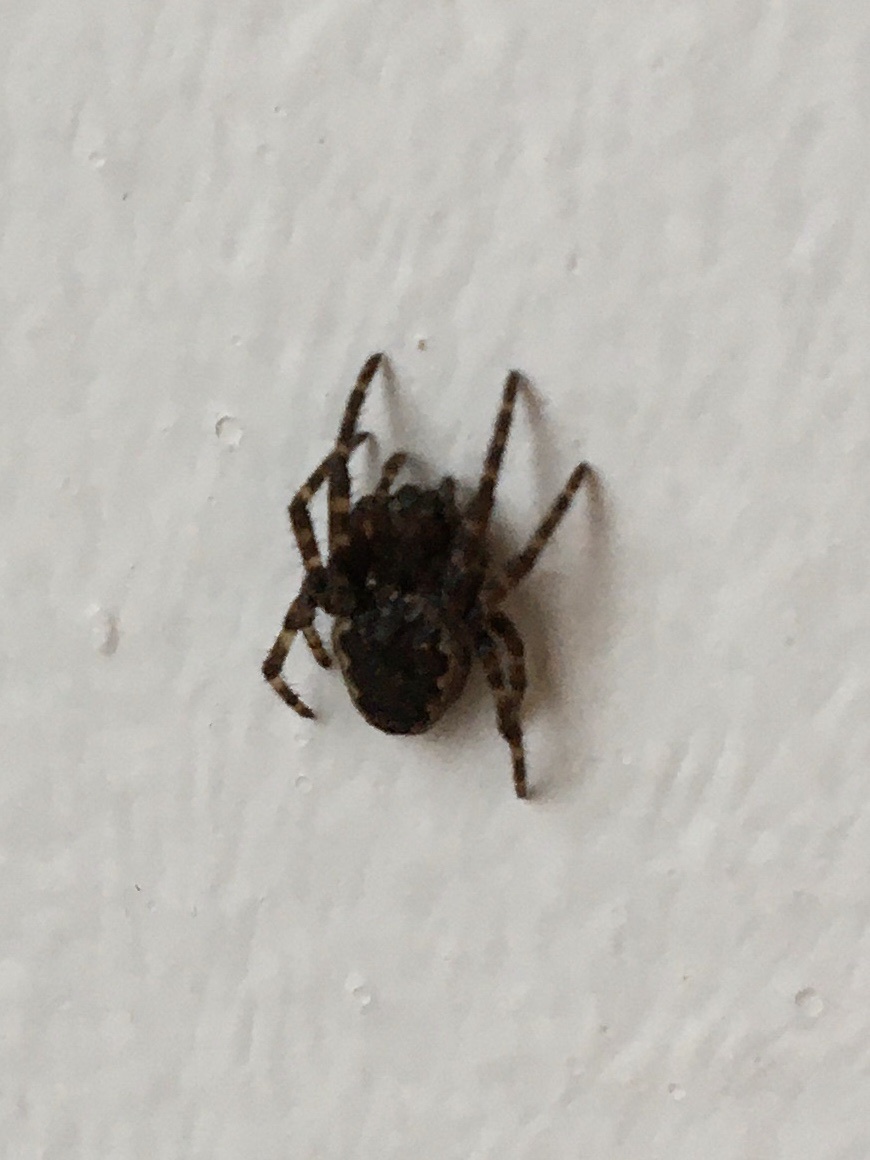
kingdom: Animalia
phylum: Arthropoda
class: Arachnida
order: Araneae
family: Araneidae
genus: Nuctenea
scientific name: Nuctenea umbratica
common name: Toad spider
